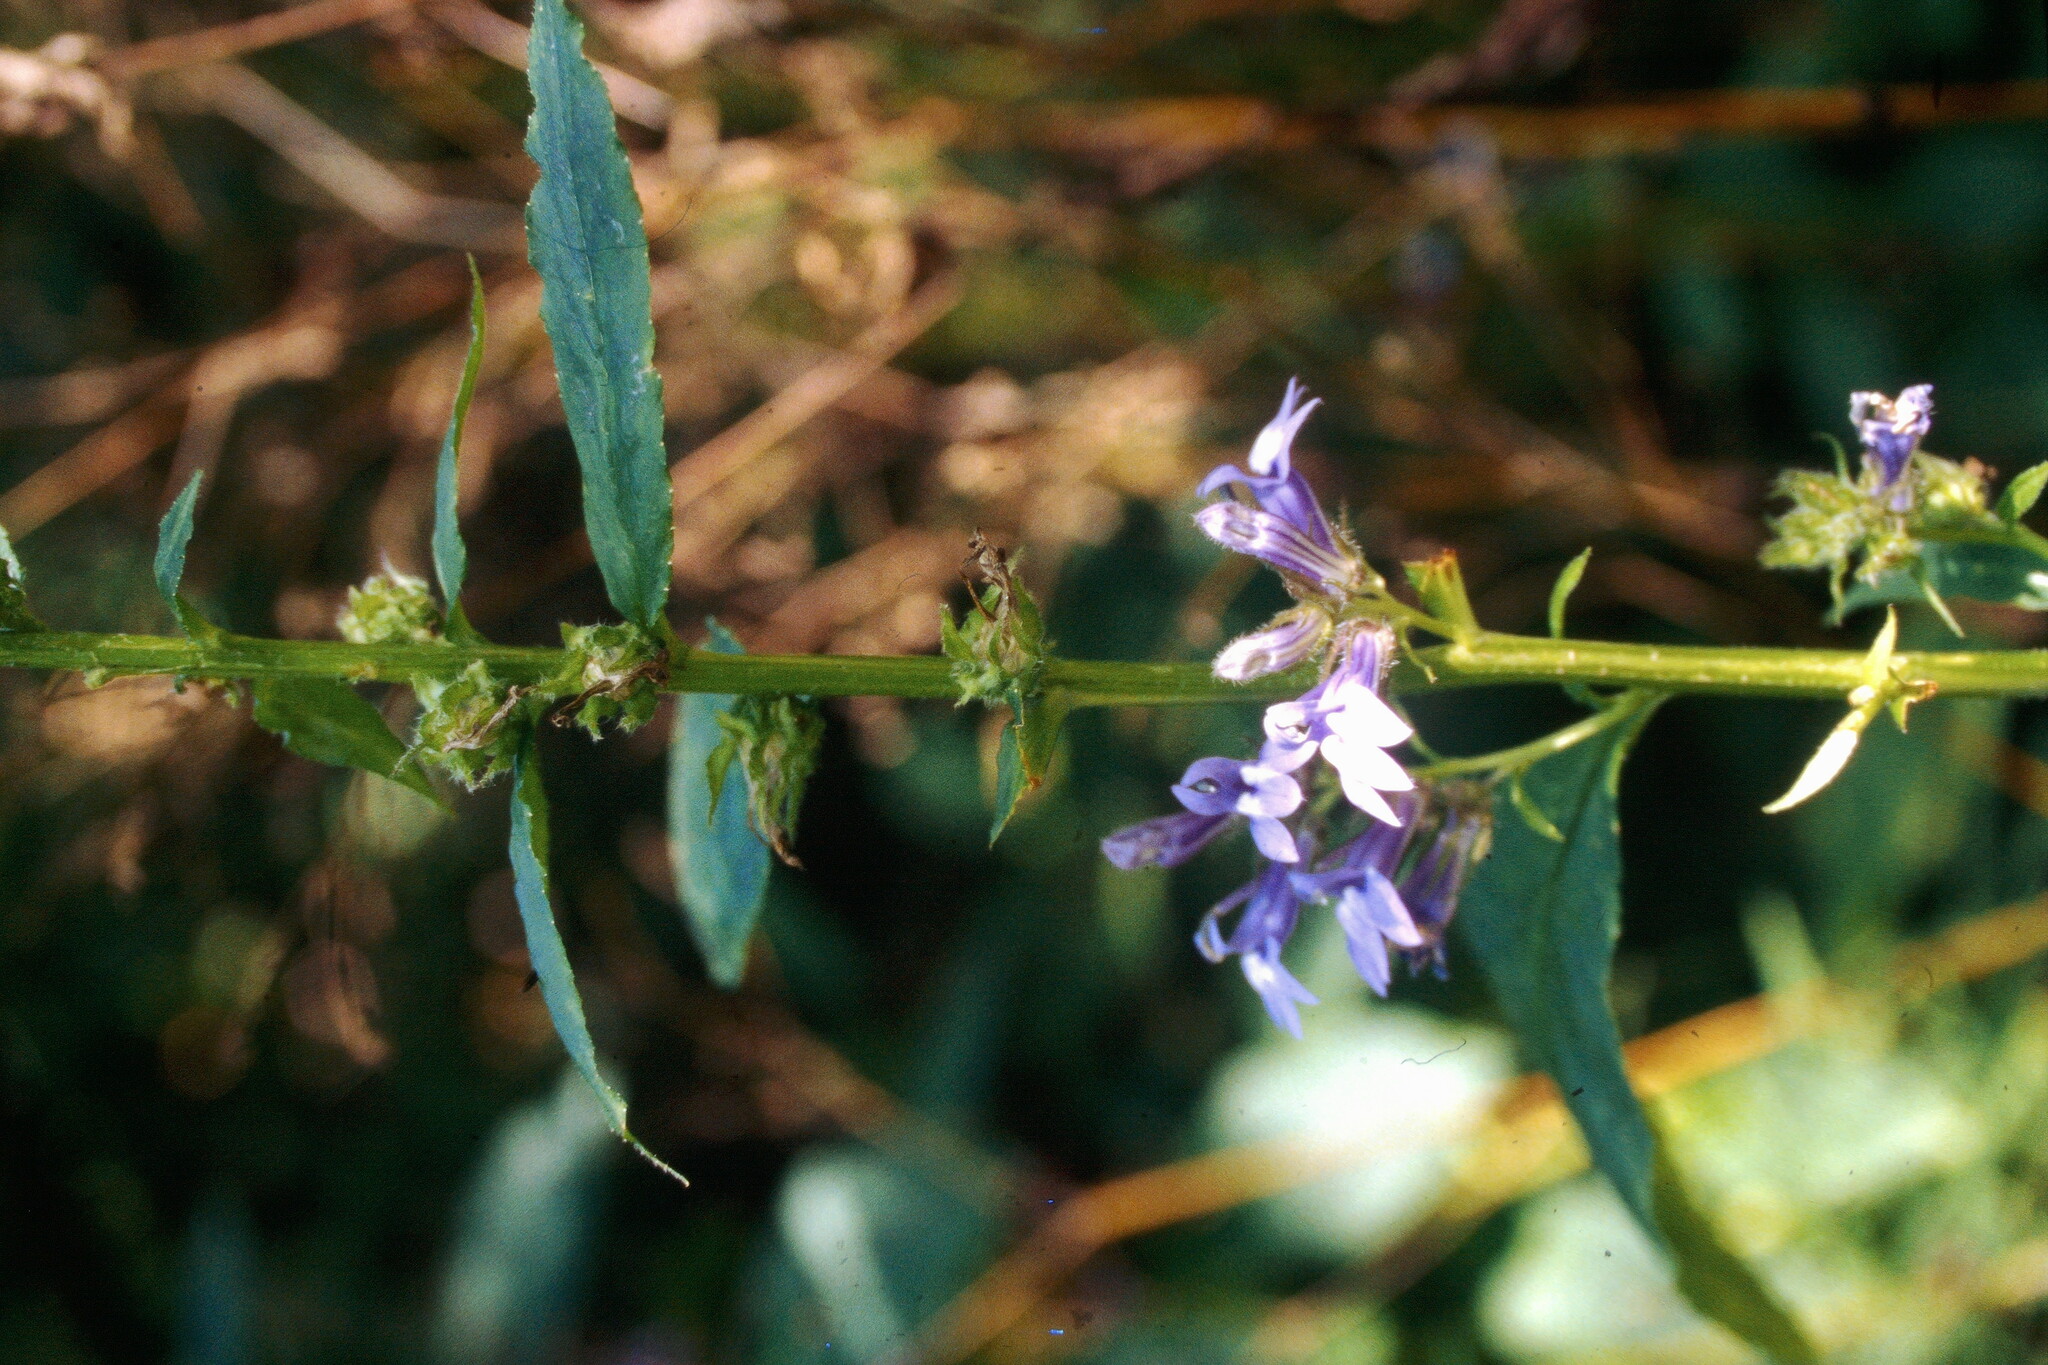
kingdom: Plantae
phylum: Tracheophyta
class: Magnoliopsida
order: Asterales
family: Campanulaceae
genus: Lobelia
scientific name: Lobelia siphilitica
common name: Great lobelia
